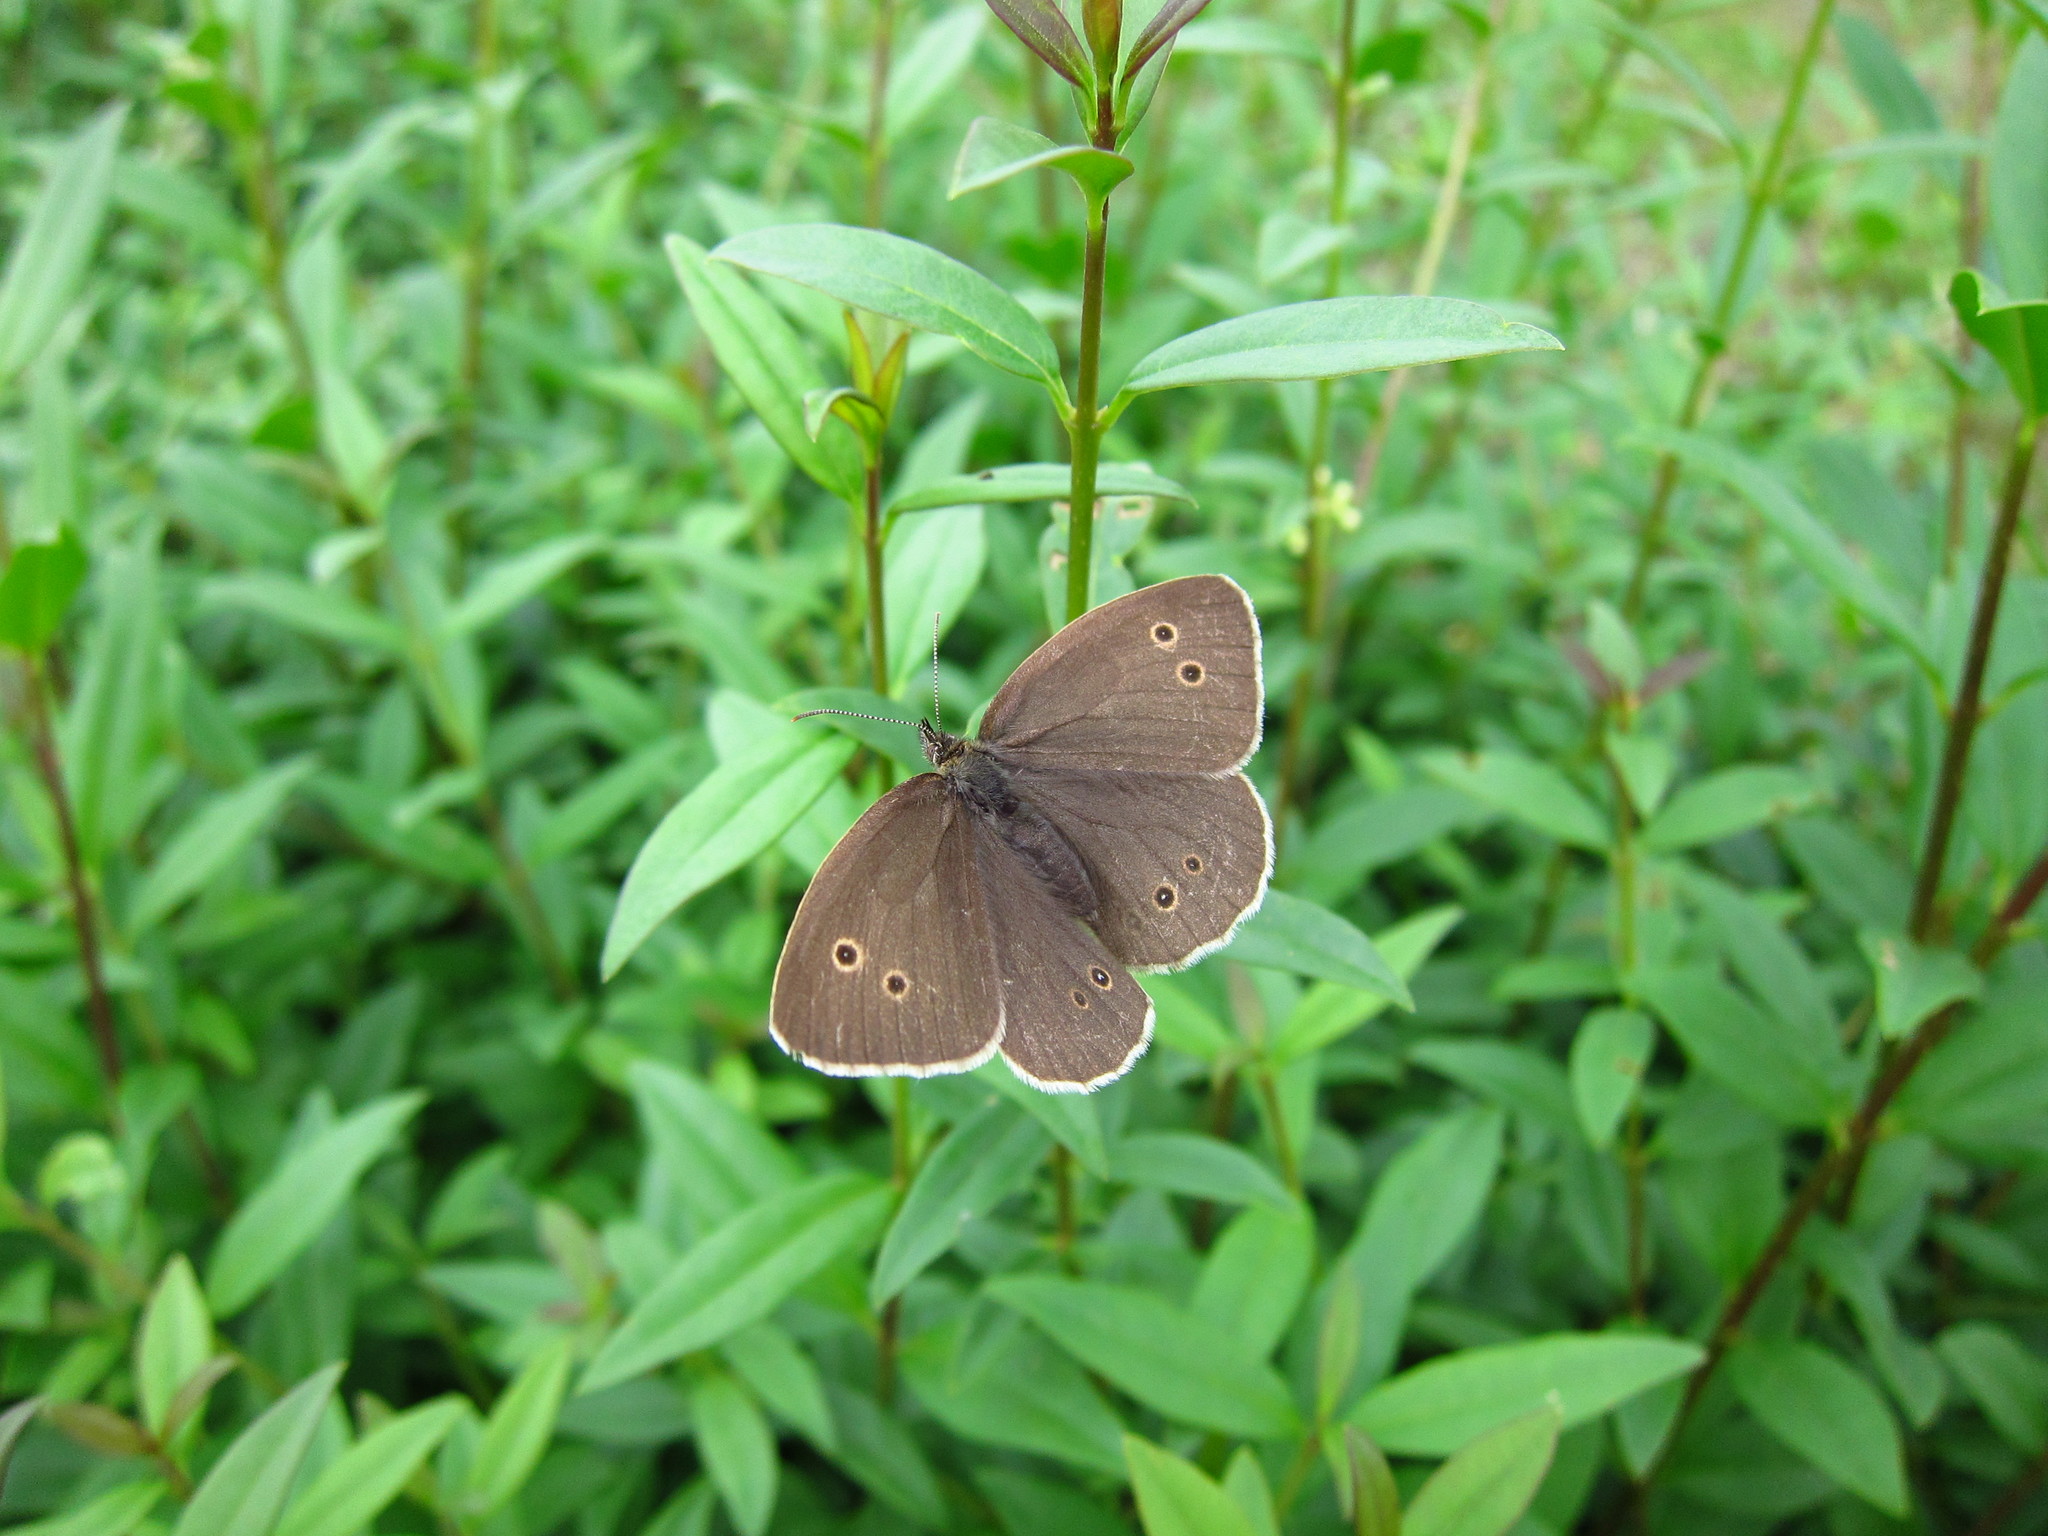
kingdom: Animalia
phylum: Arthropoda
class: Insecta
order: Lepidoptera
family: Nymphalidae
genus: Aphantopus
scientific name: Aphantopus hyperantus
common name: Ringlet
